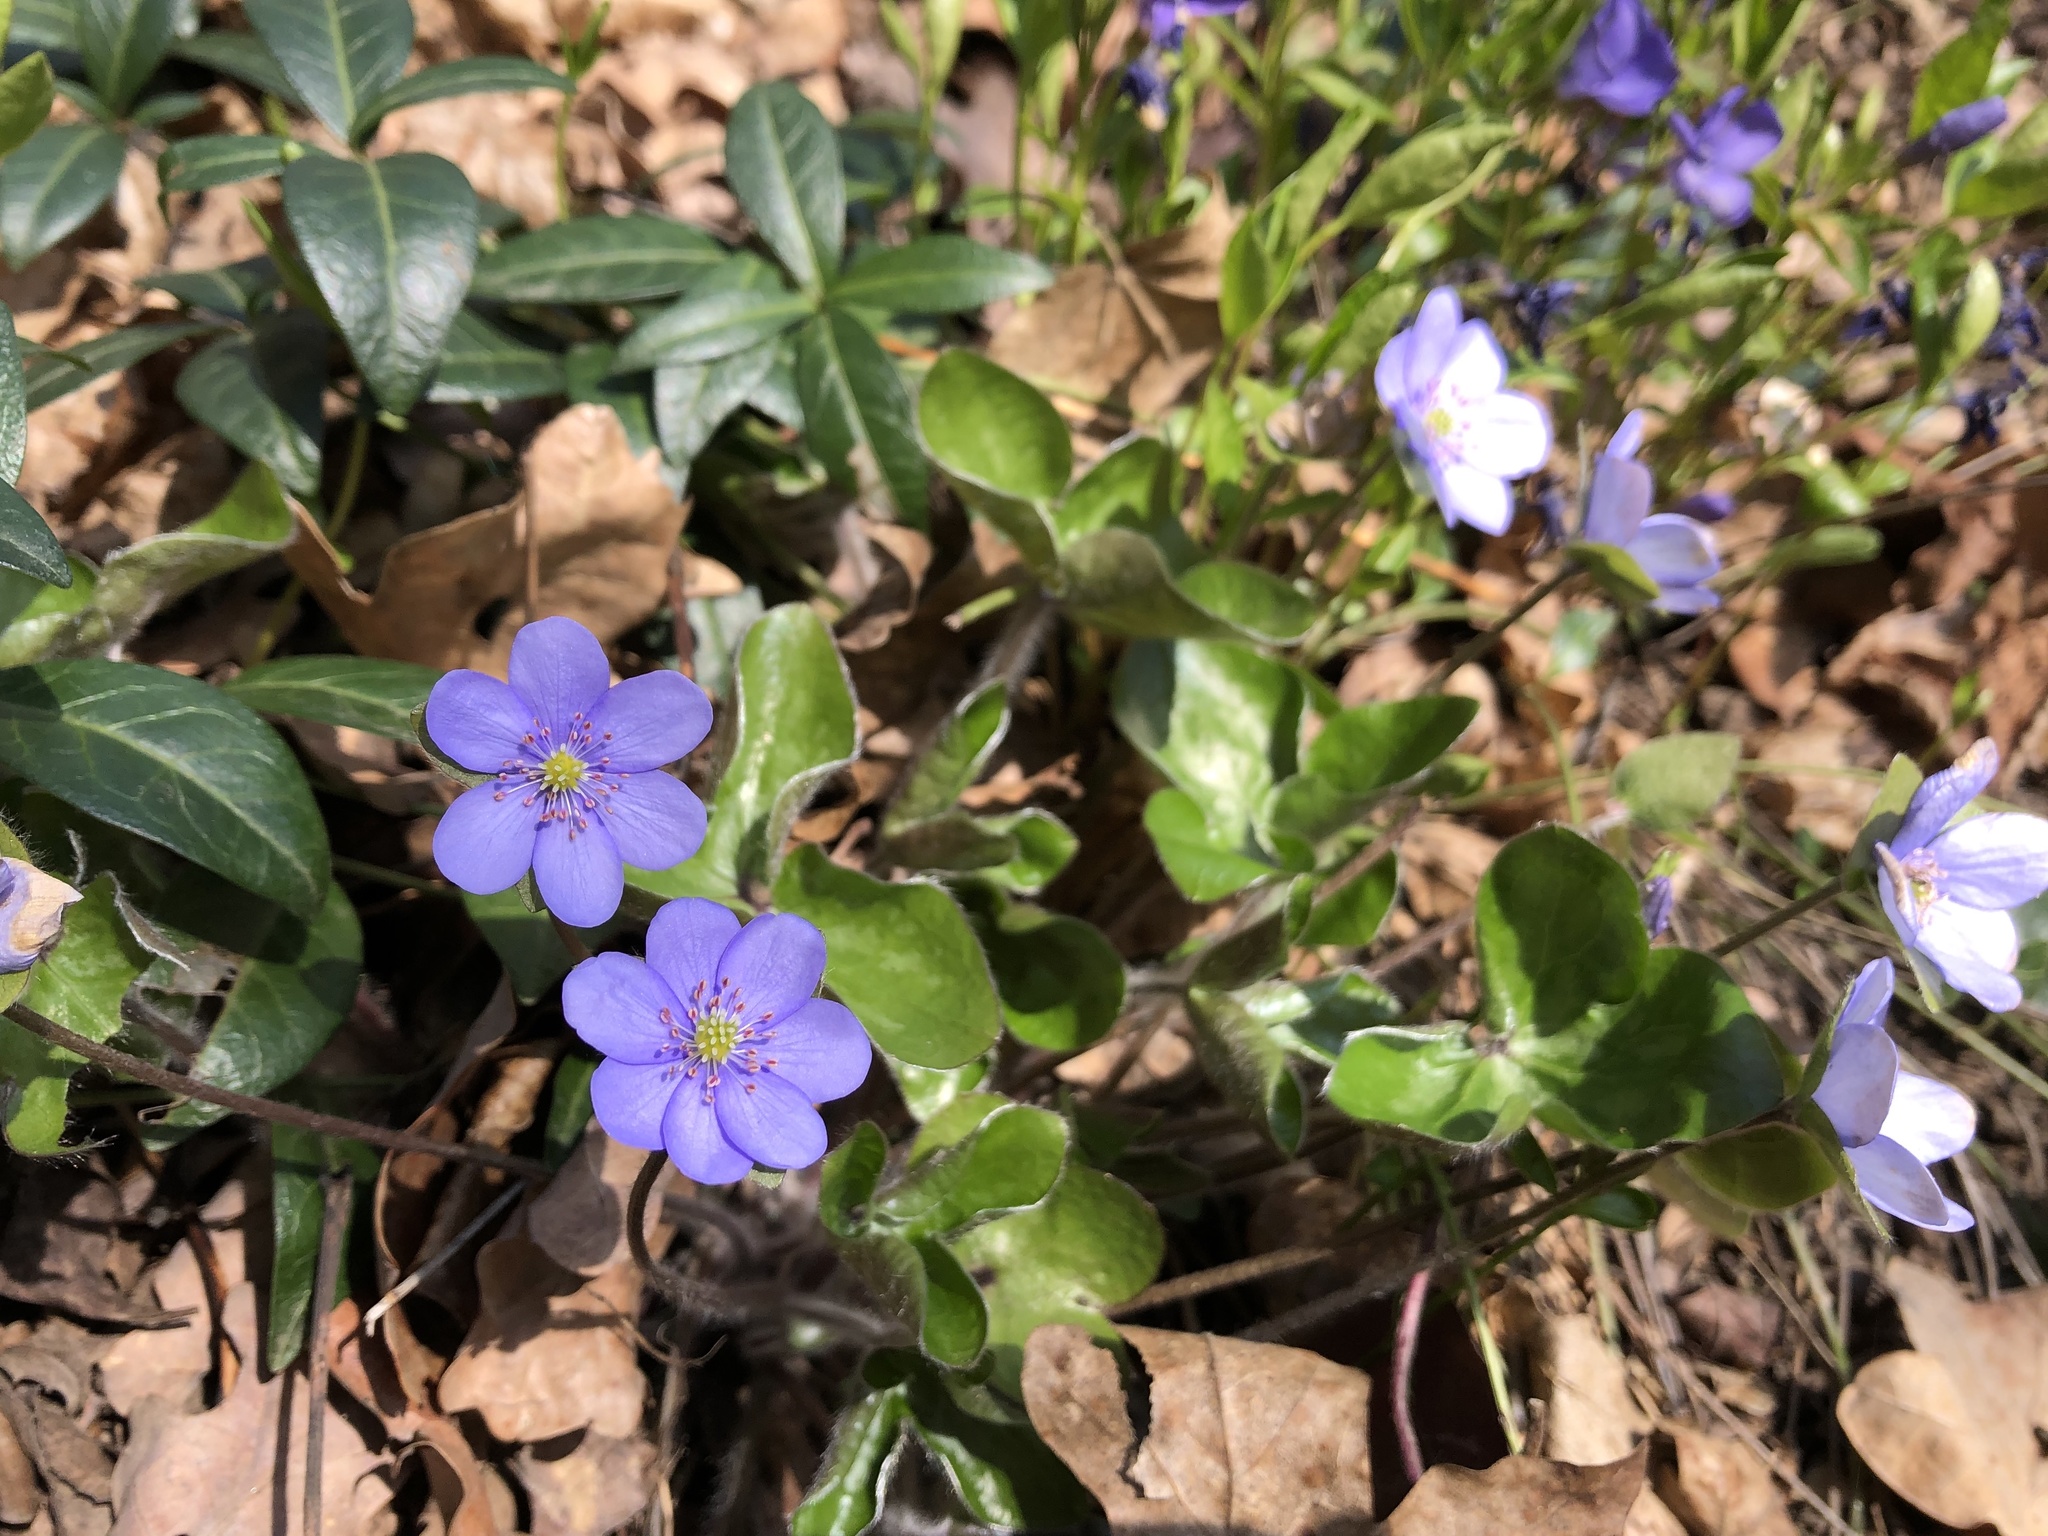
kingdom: Plantae
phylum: Tracheophyta
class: Magnoliopsida
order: Ranunculales
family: Ranunculaceae
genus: Hepatica
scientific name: Hepatica nobilis
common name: Liverleaf
